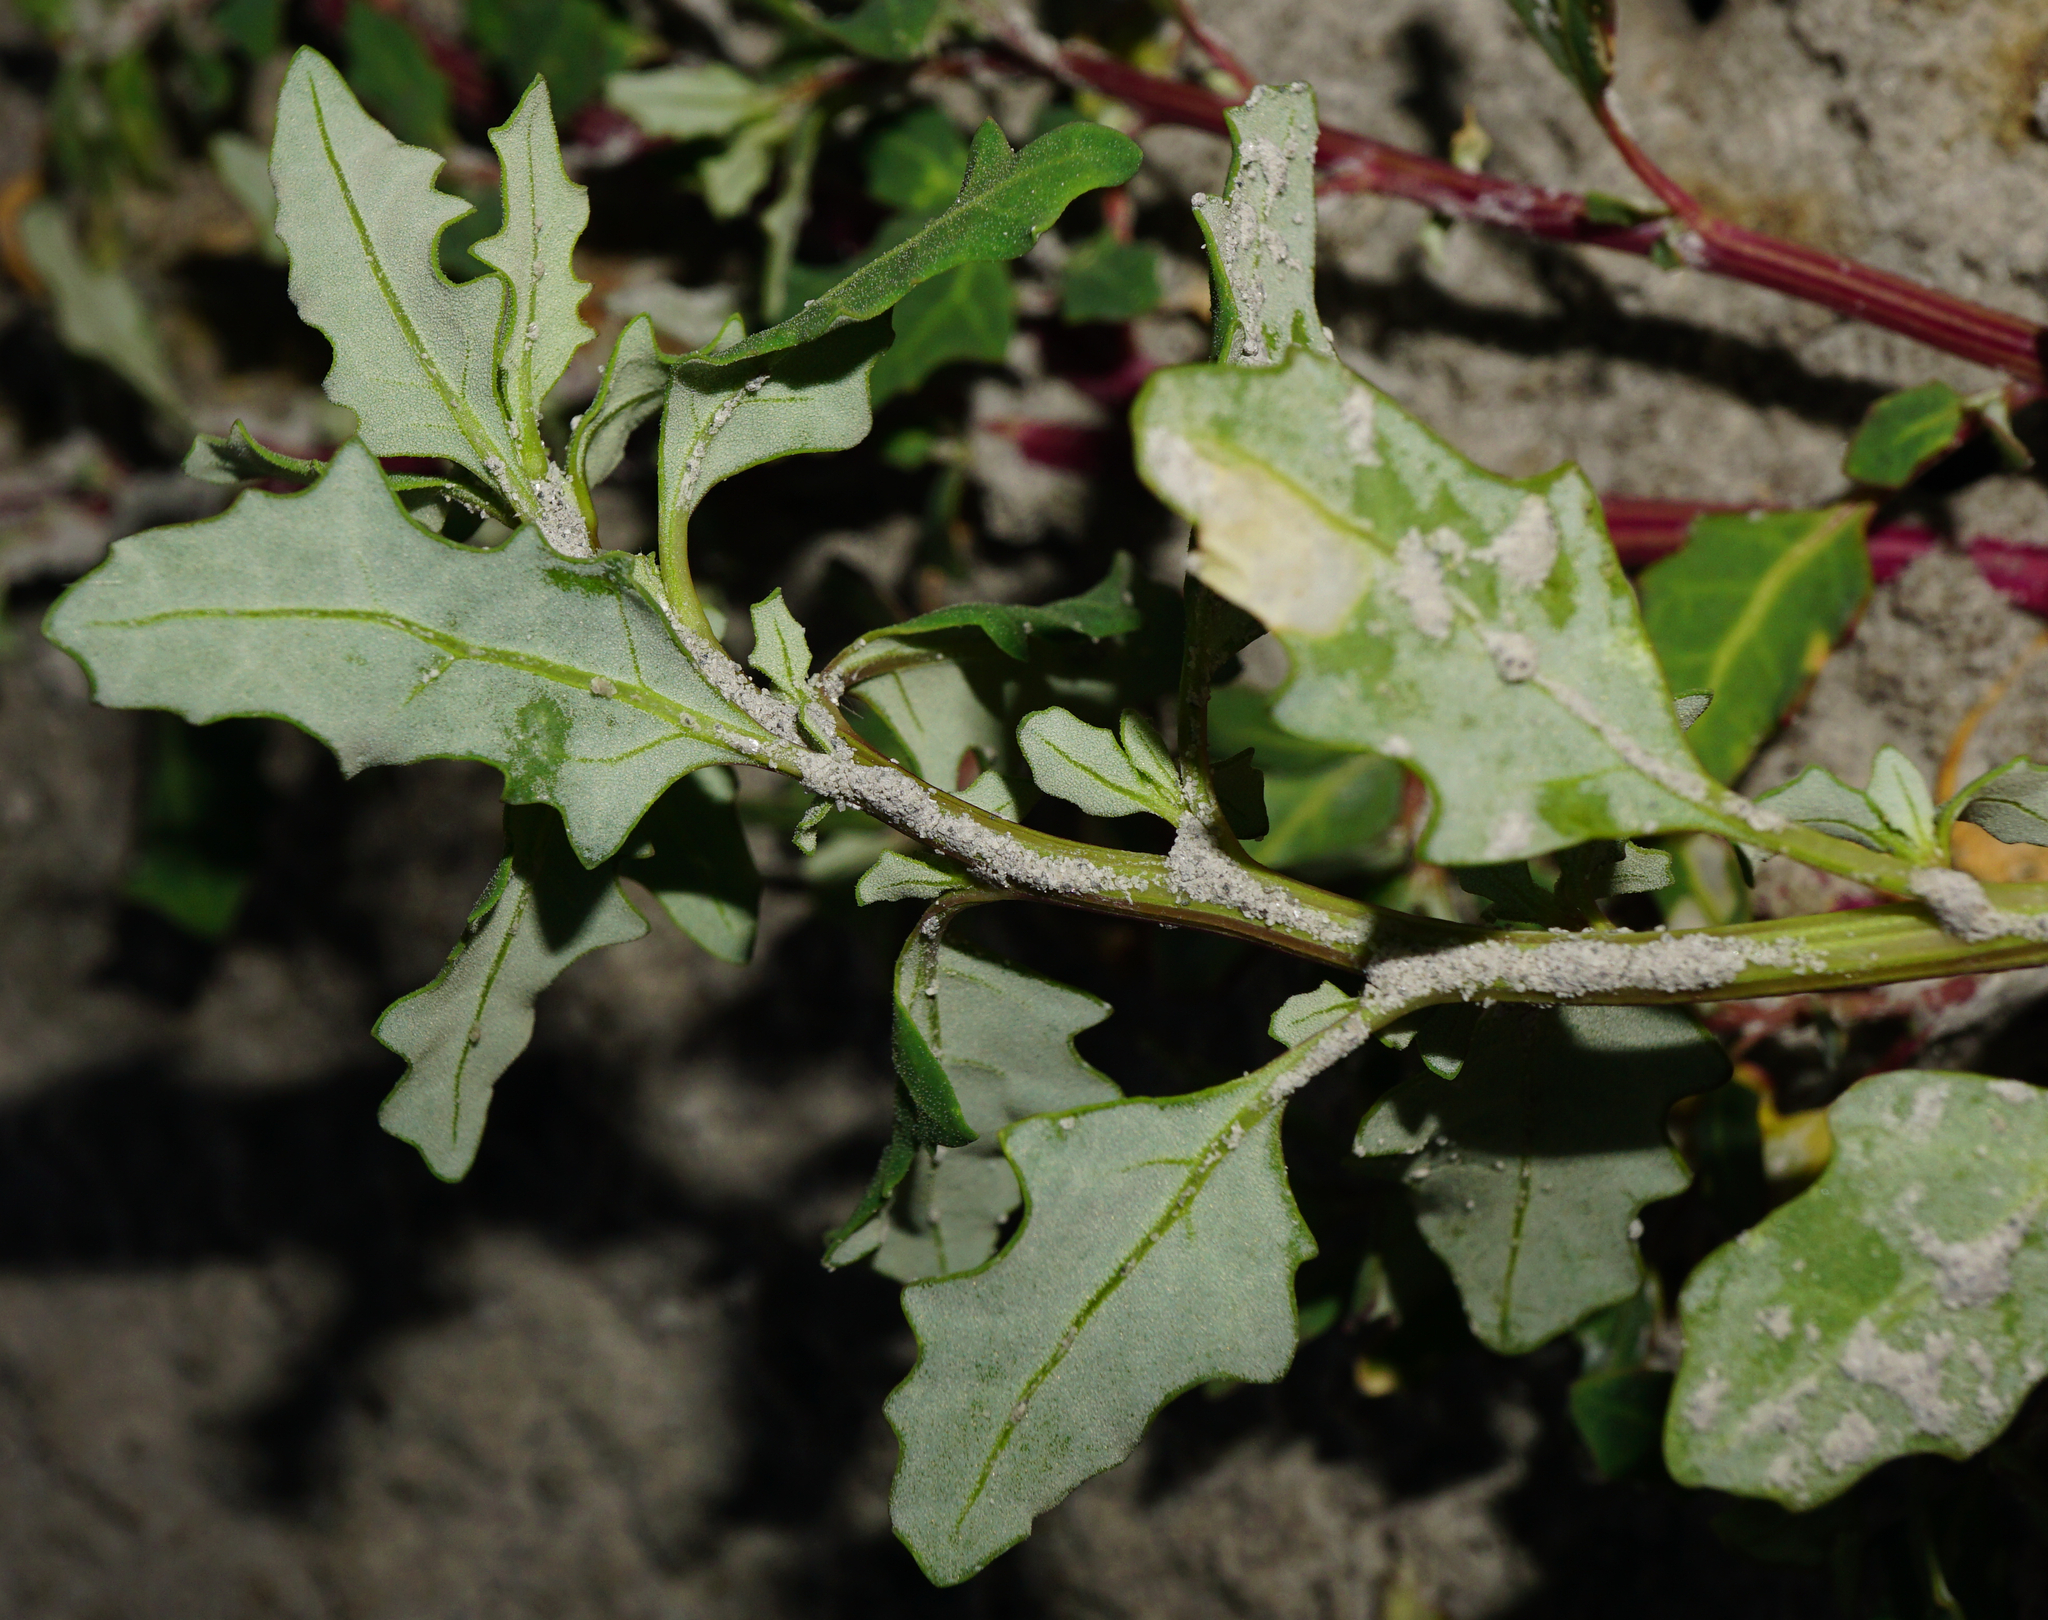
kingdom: Plantae
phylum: Tracheophyta
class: Magnoliopsida
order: Caryophyllales
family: Amaranthaceae
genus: Oxybasis
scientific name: Oxybasis glauca
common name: Glaucous goosefoot
